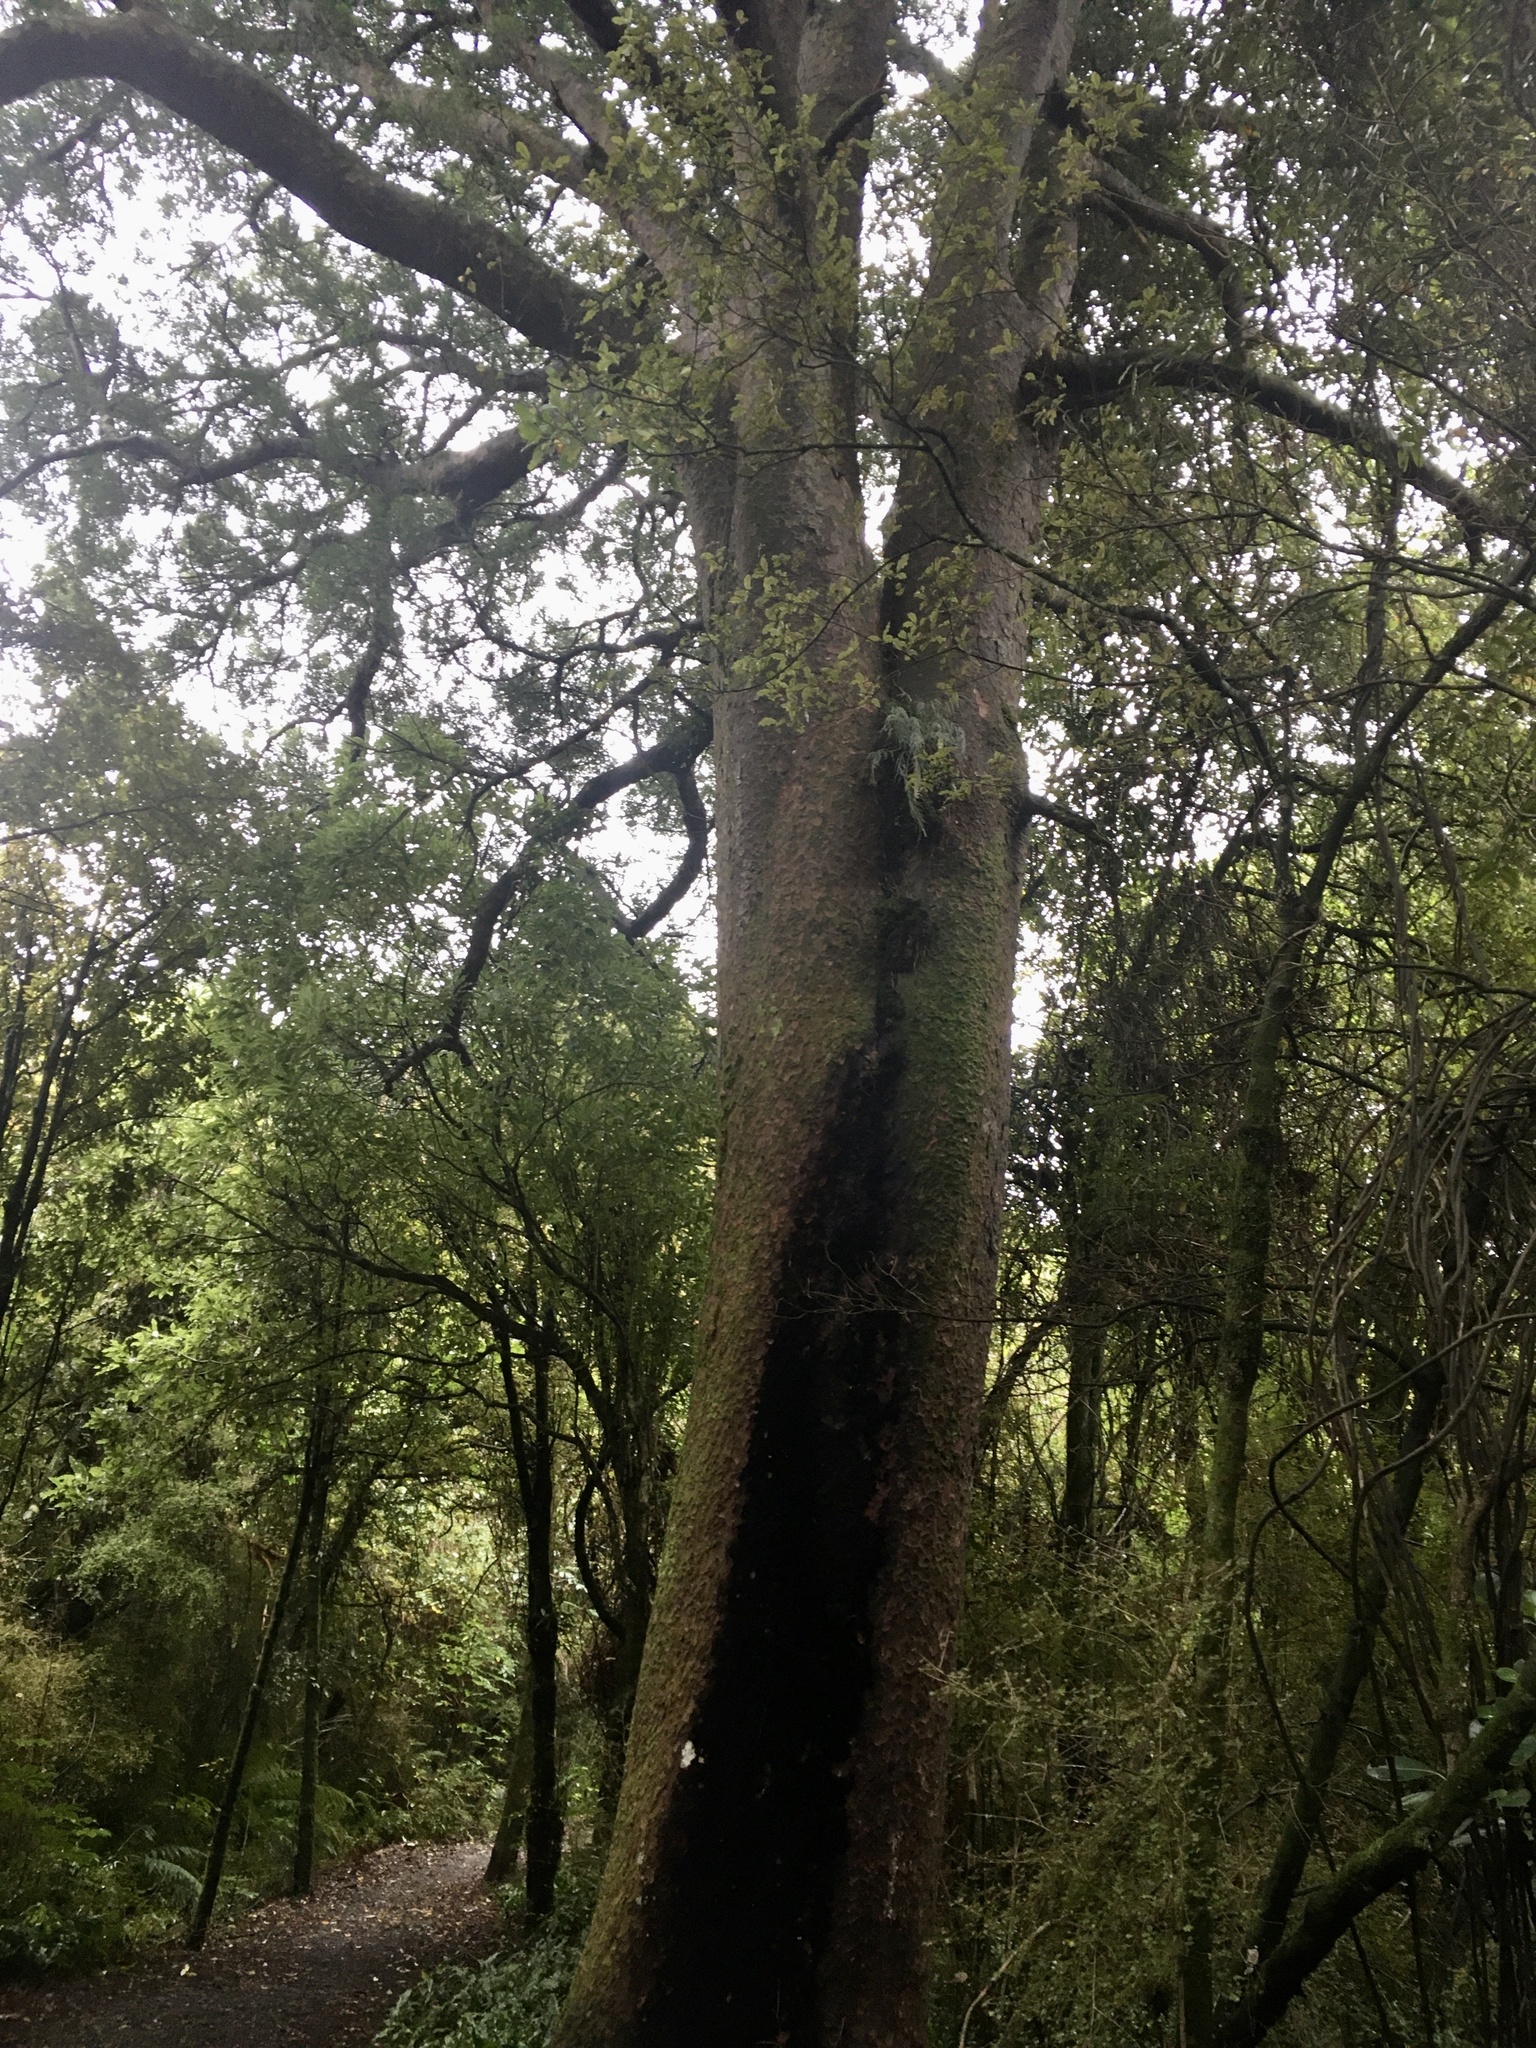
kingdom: Plantae
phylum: Tracheophyta
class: Pinopsida
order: Pinales
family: Podocarpaceae
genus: Prumnopitys
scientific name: Prumnopitys taxifolia
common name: Matai
